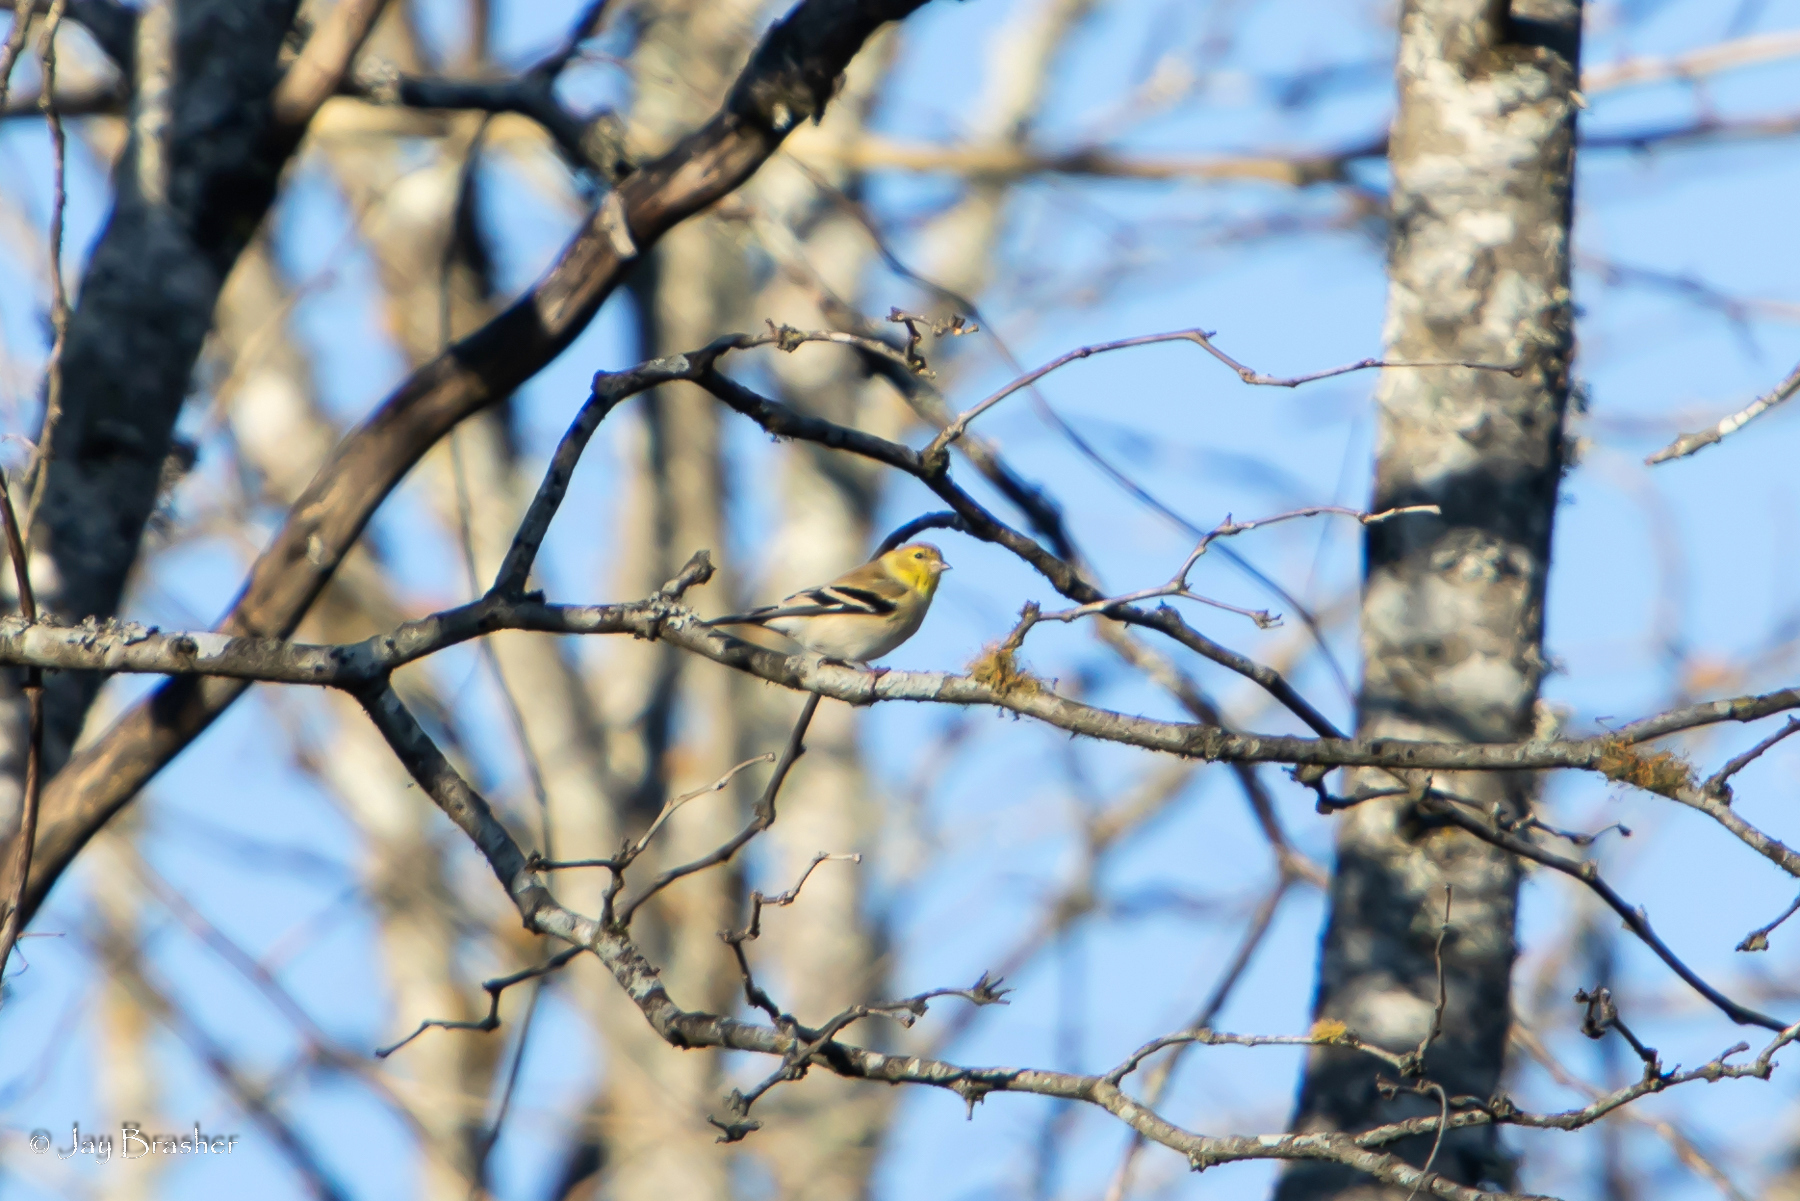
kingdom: Animalia
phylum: Chordata
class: Aves
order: Passeriformes
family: Fringillidae
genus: Spinus
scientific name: Spinus tristis
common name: American goldfinch
